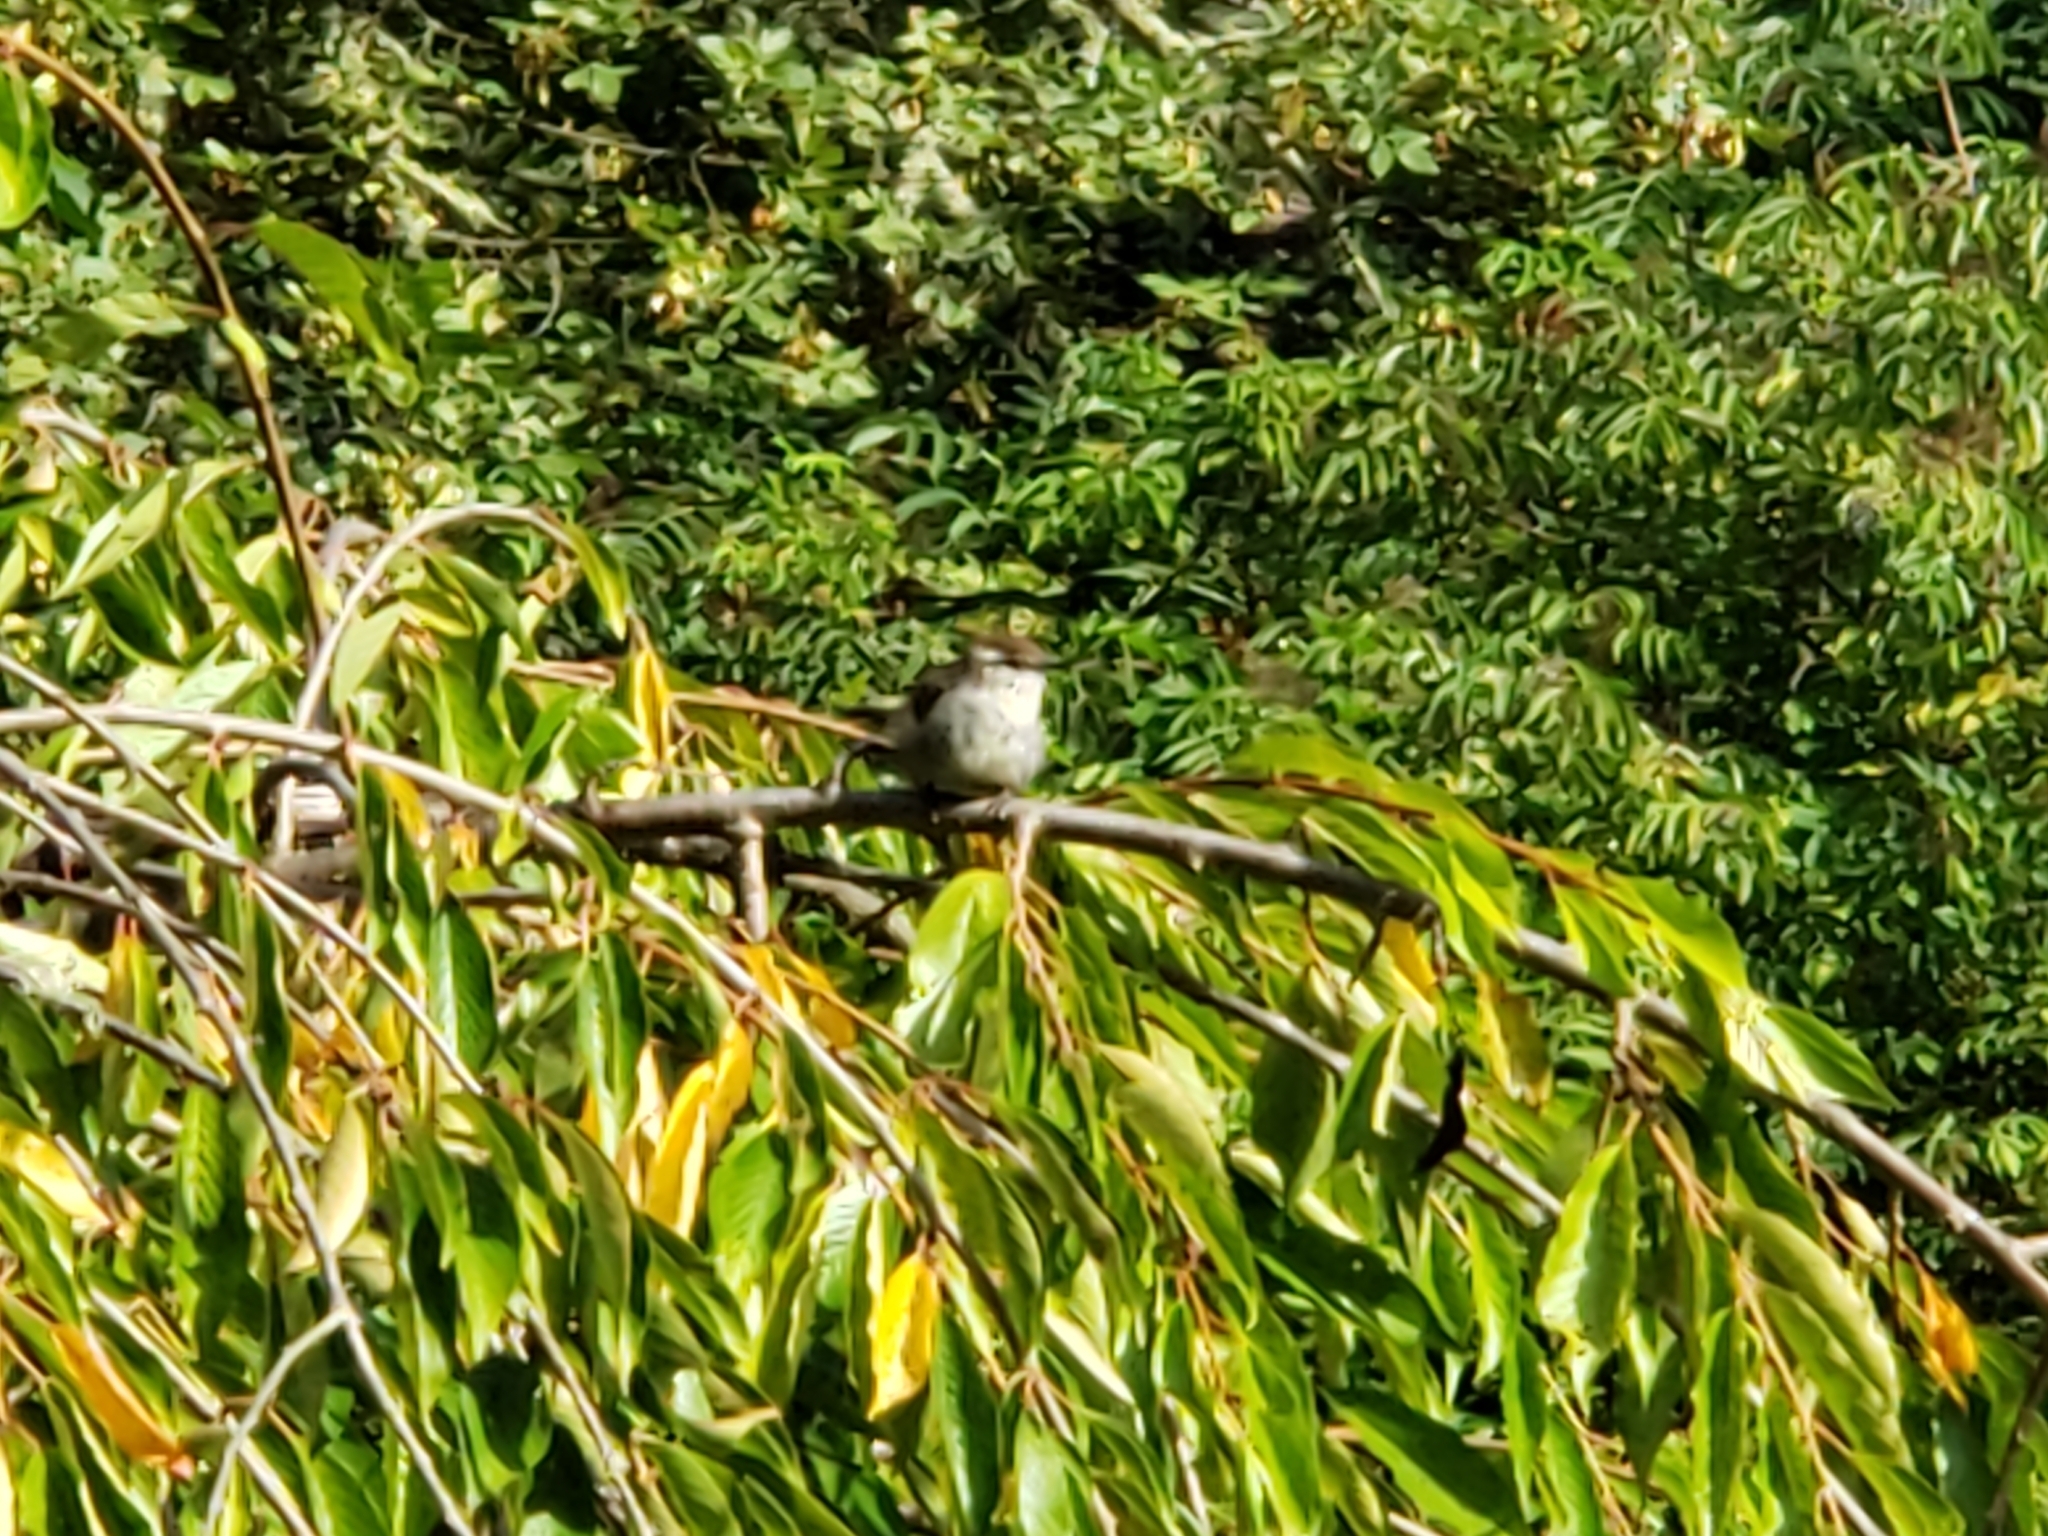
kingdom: Animalia
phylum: Chordata
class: Aves
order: Passeriformes
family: Troglodytidae
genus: Thryomanes
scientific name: Thryomanes bewickii
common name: Bewick's wren
